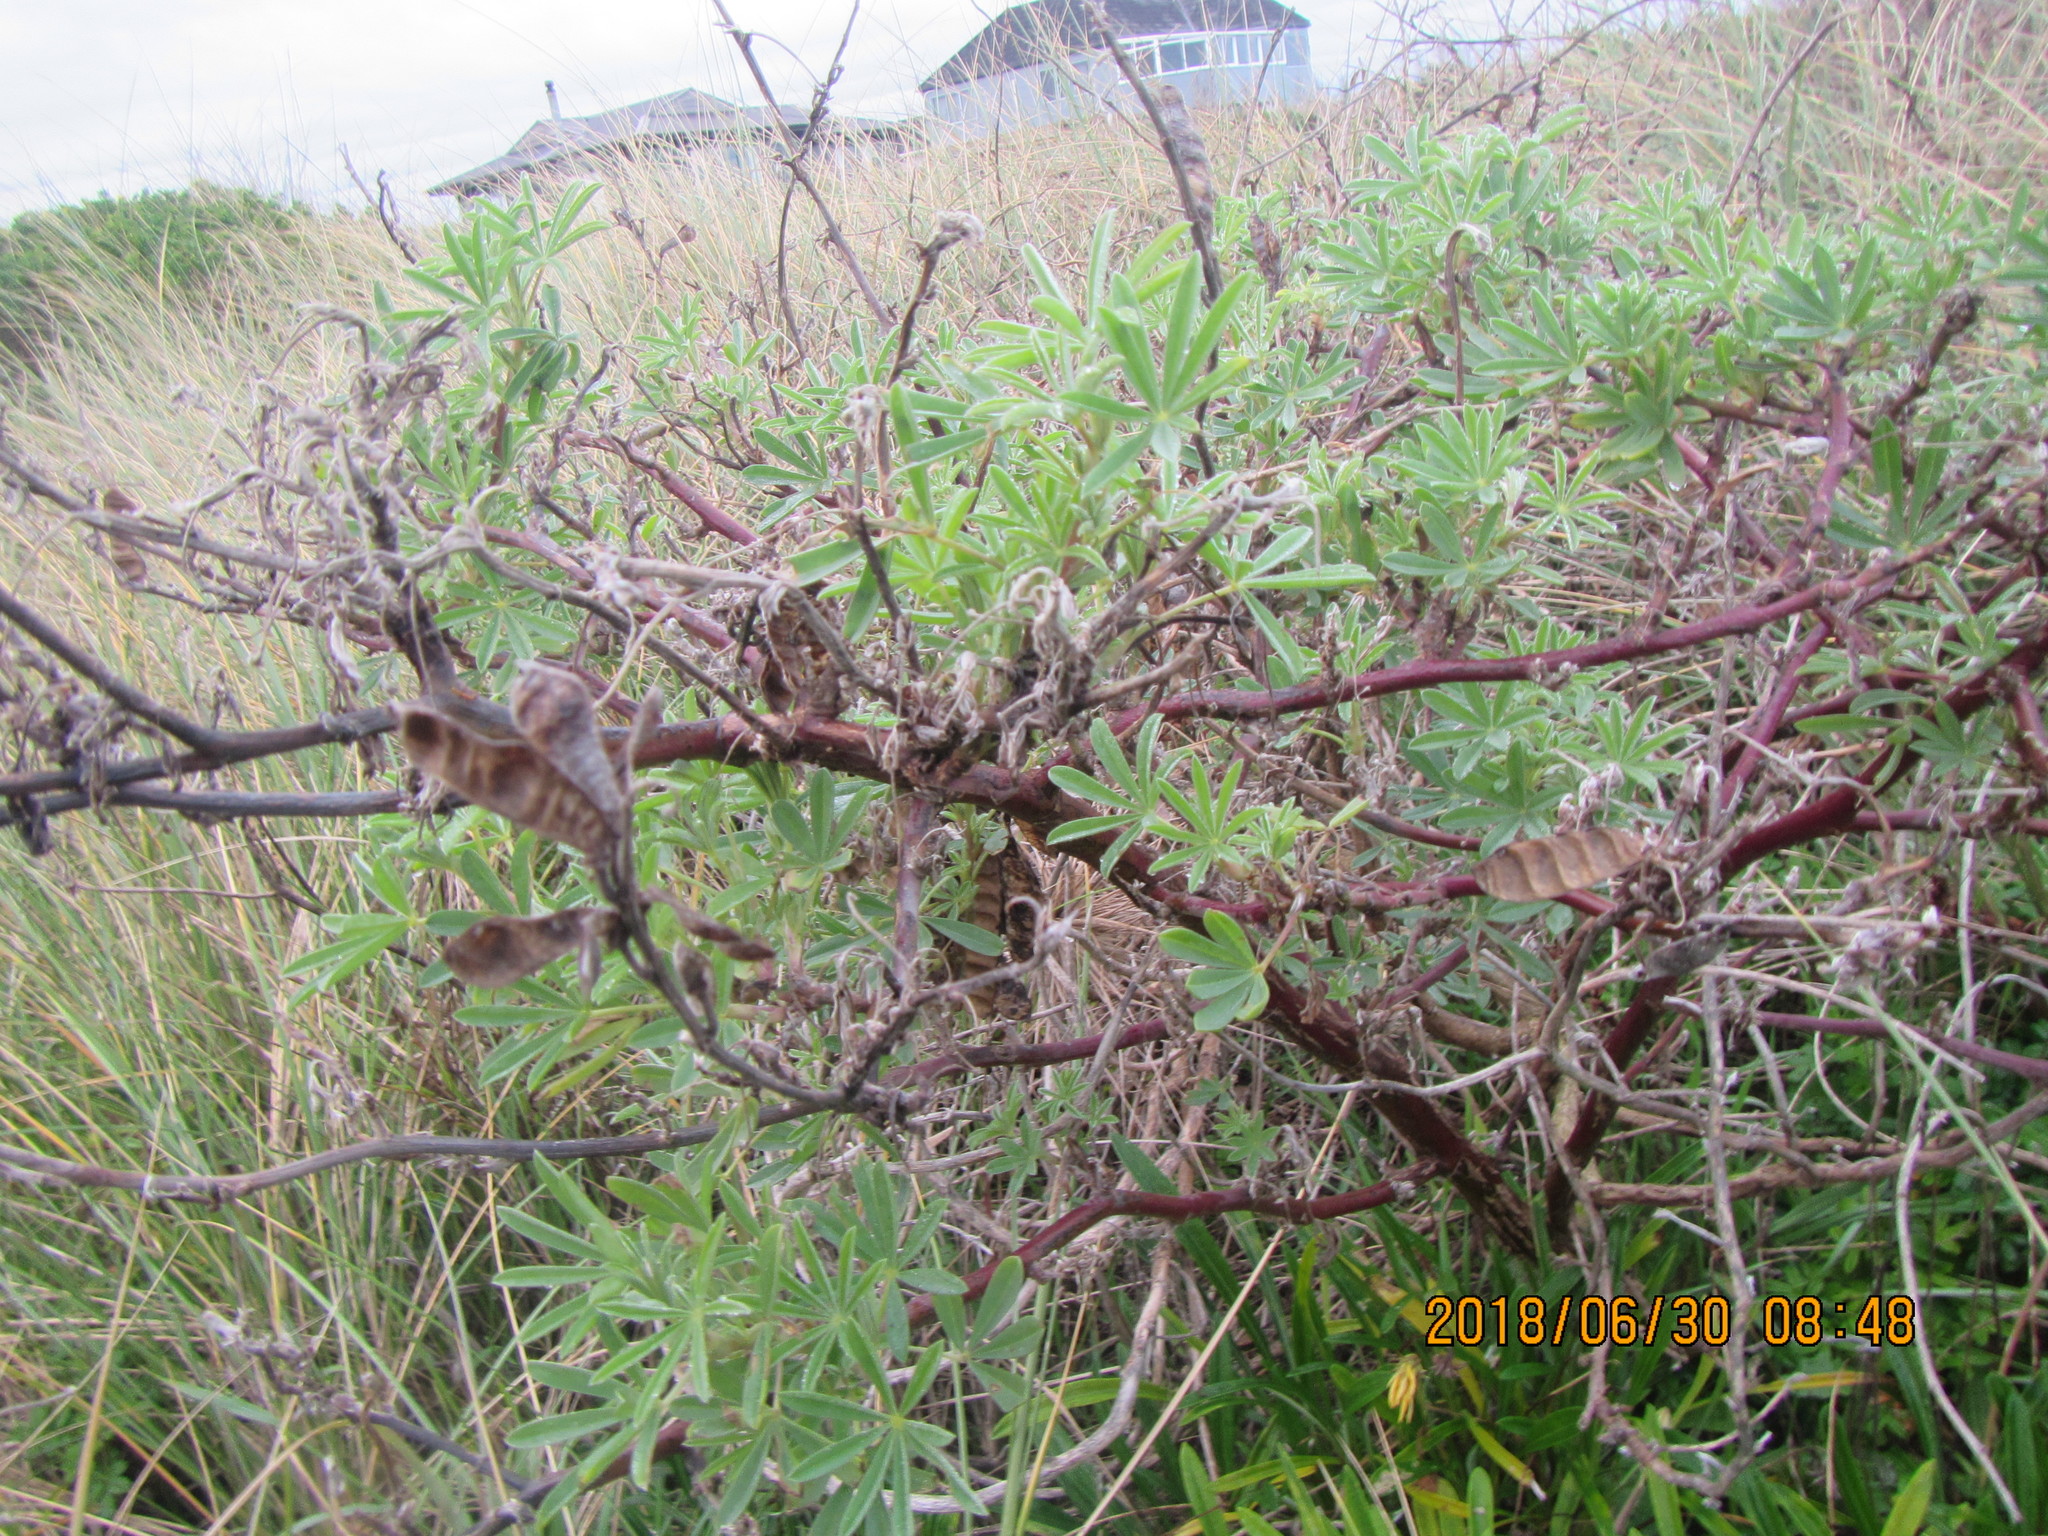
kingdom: Plantae
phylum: Tracheophyta
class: Magnoliopsida
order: Fabales
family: Fabaceae
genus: Lupinus
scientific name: Lupinus arboreus
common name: Yellow bush lupine
